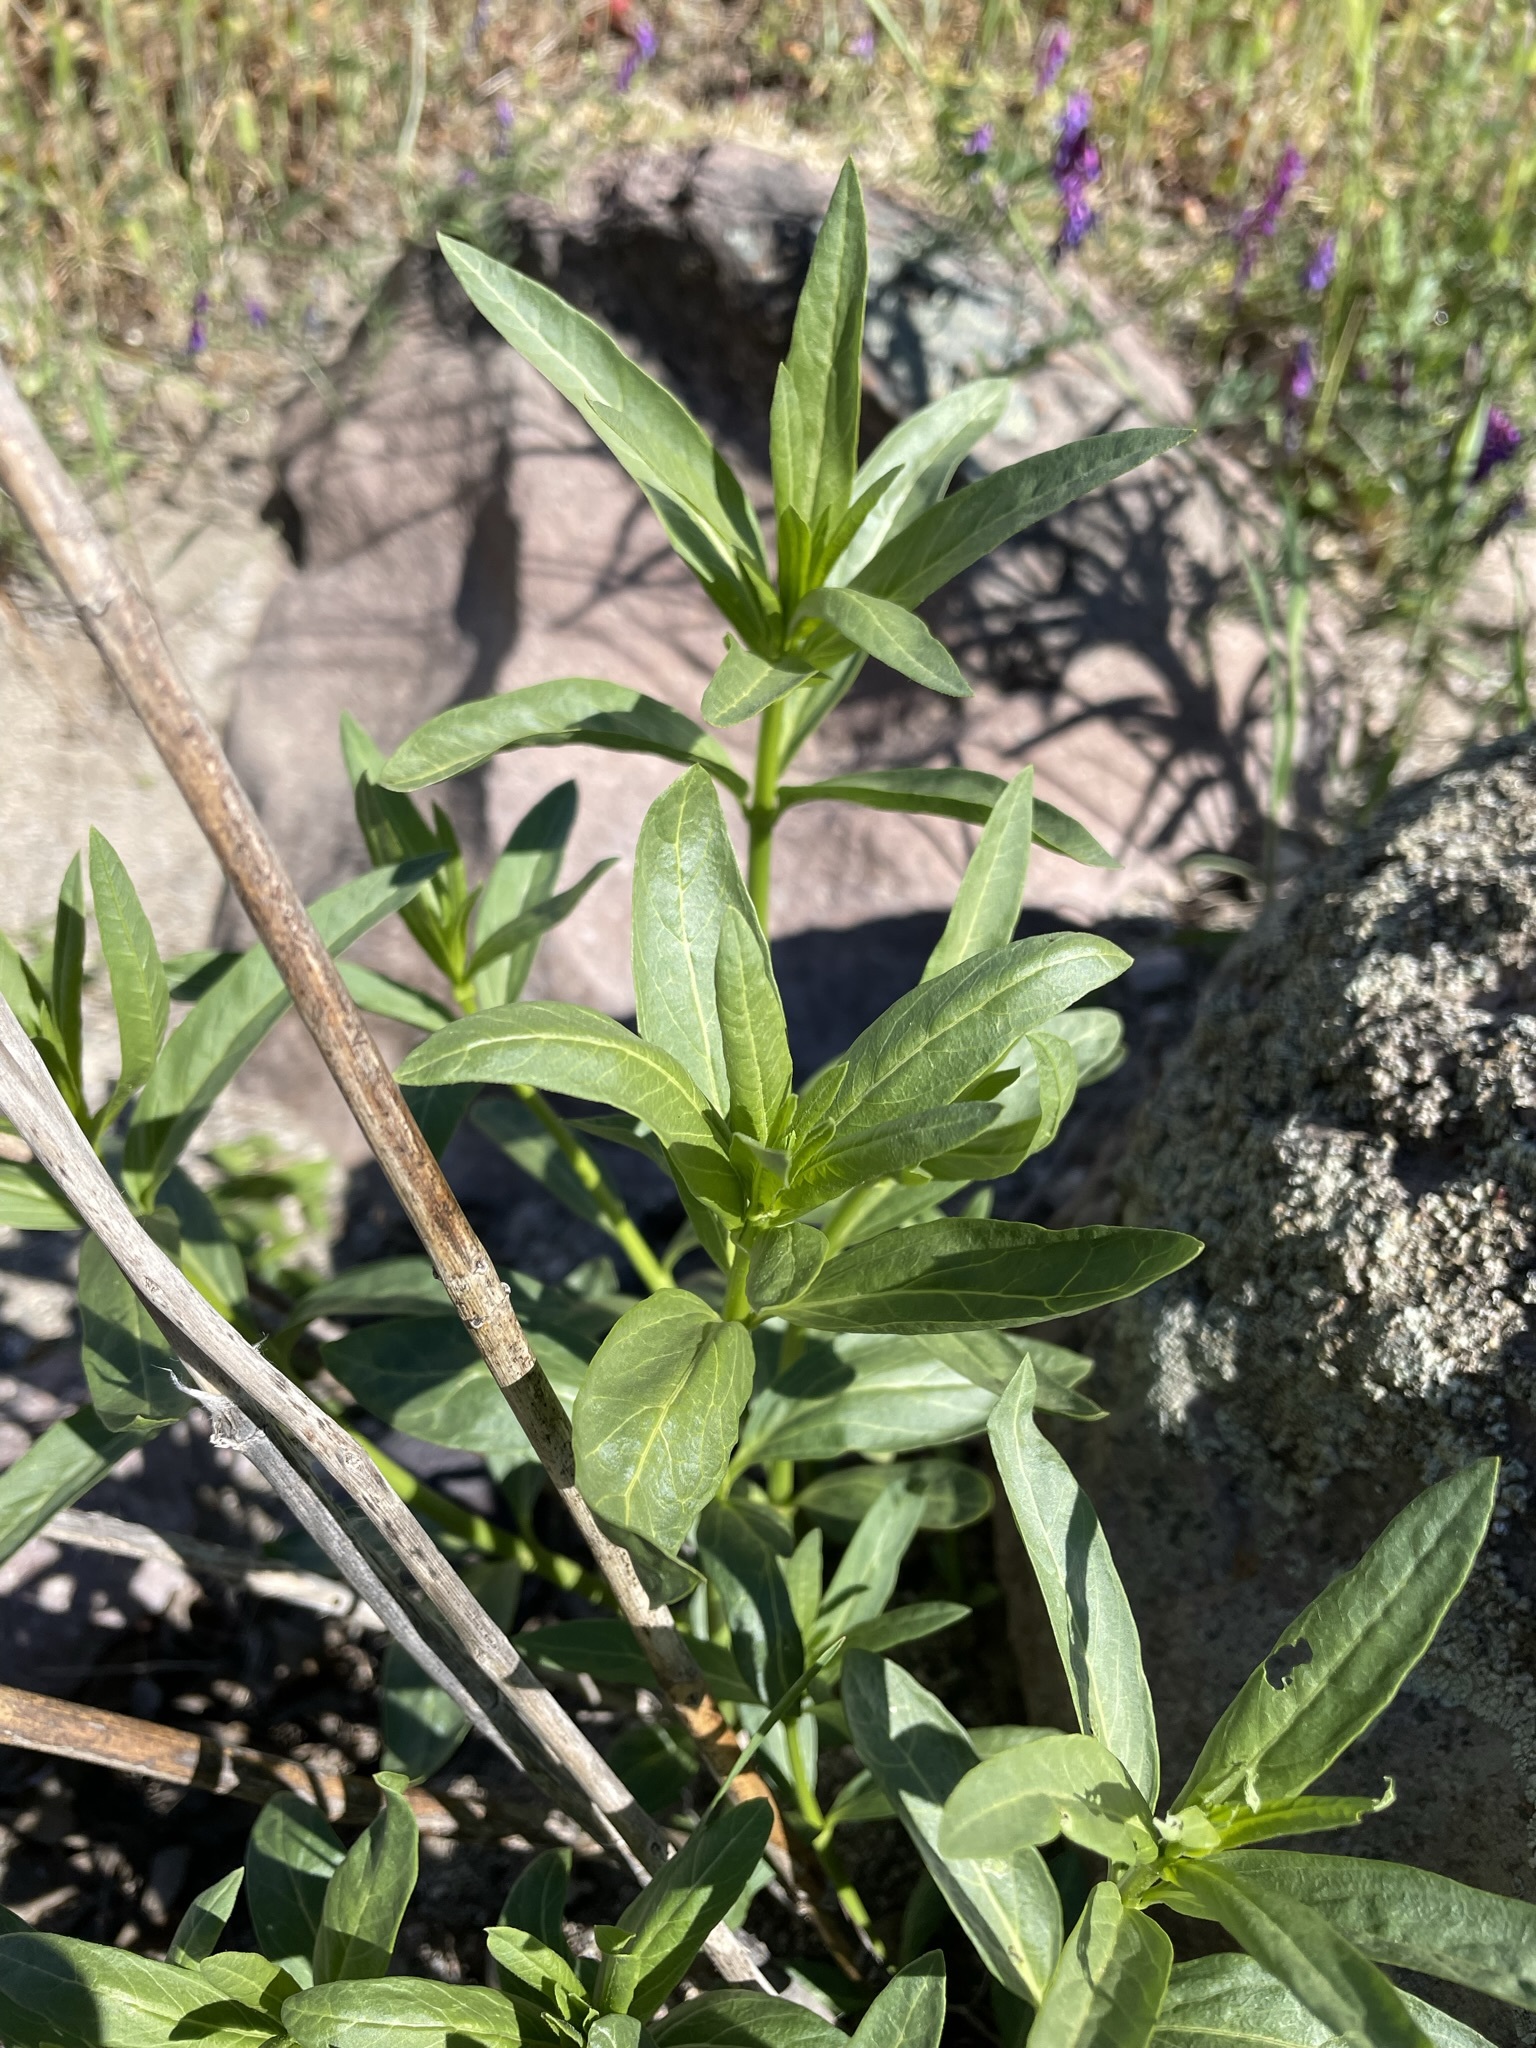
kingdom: Plantae
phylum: Tracheophyta
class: Magnoliopsida
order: Gentianales
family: Apocynaceae
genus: Asclepias
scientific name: Asclepias fascicularis
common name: Mexican milkweed
